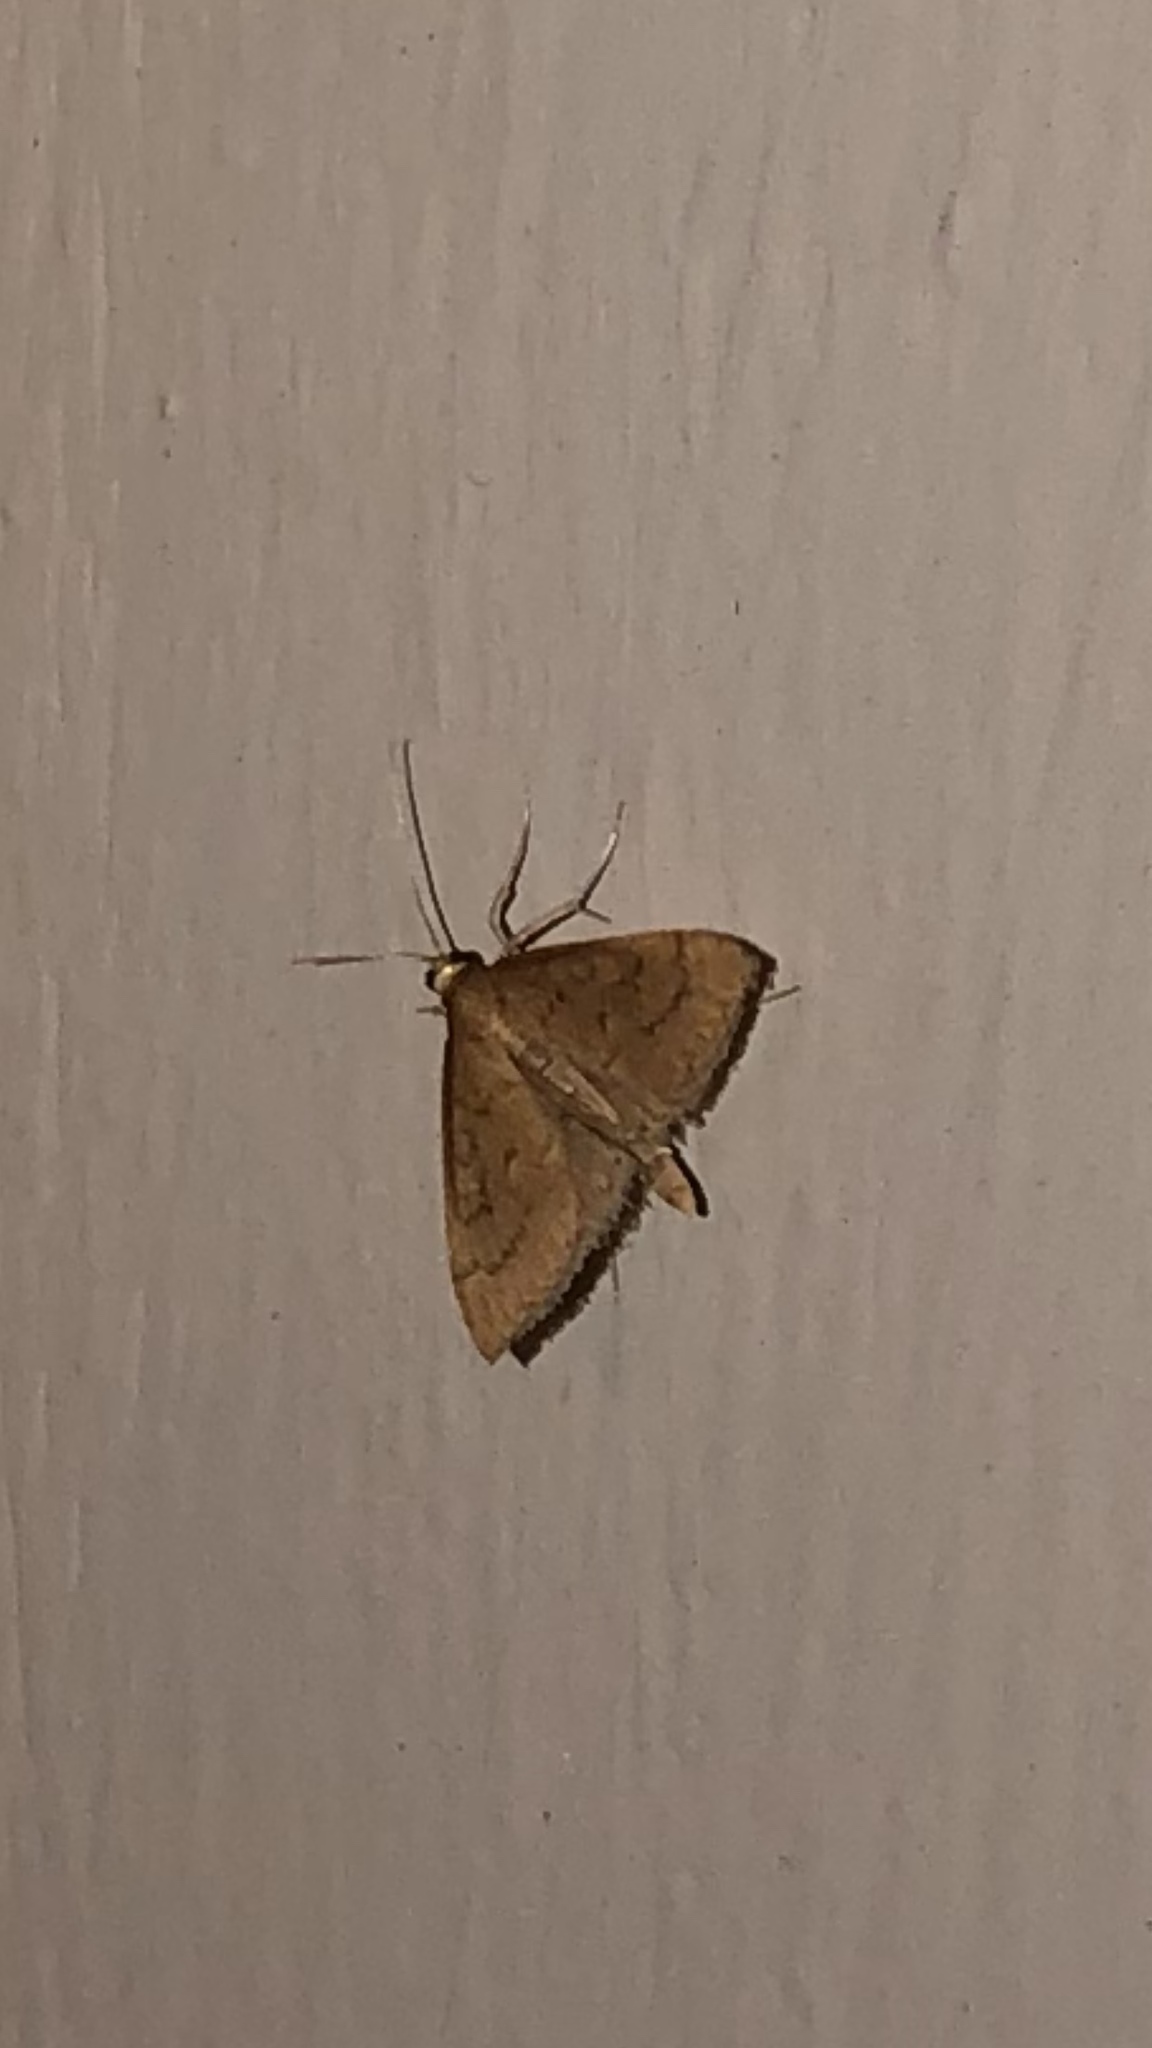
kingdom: Animalia
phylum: Arthropoda
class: Insecta
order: Lepidoptera
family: Crambidae
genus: Udea
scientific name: Udea rubigalis
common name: Celery leaftier moth
